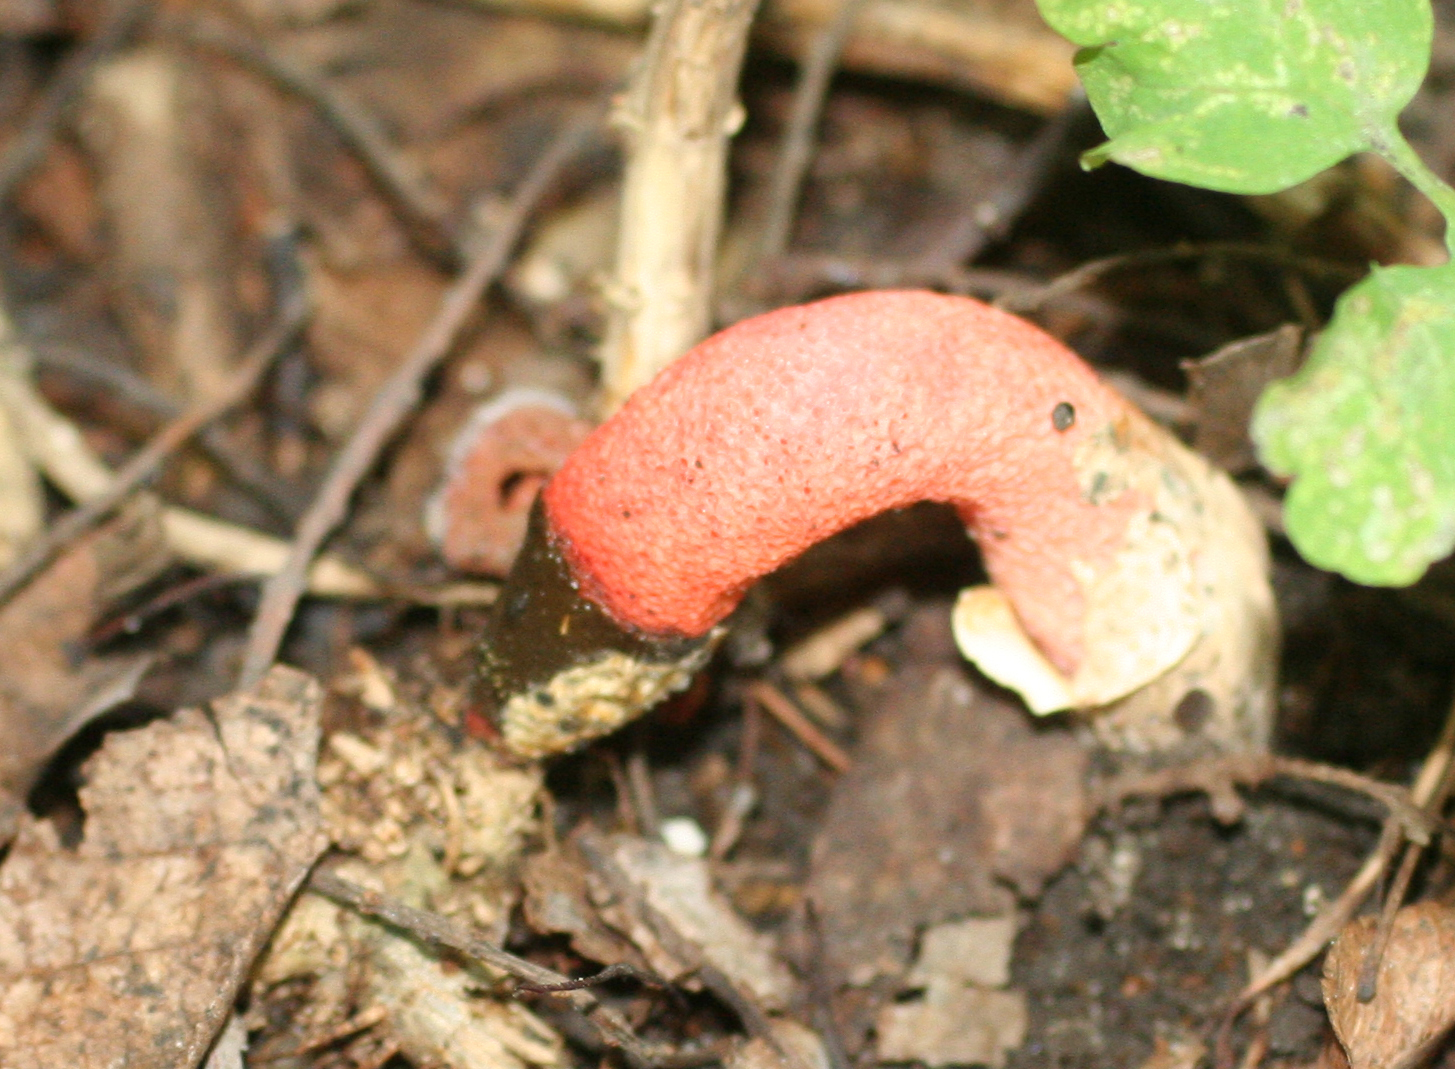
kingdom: Fungi
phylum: Basidiomycota
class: Agaricomycetes
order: Phallales
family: Phallaceae
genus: Mutinus
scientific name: Mutinus caninus
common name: Dog stinkhorn
